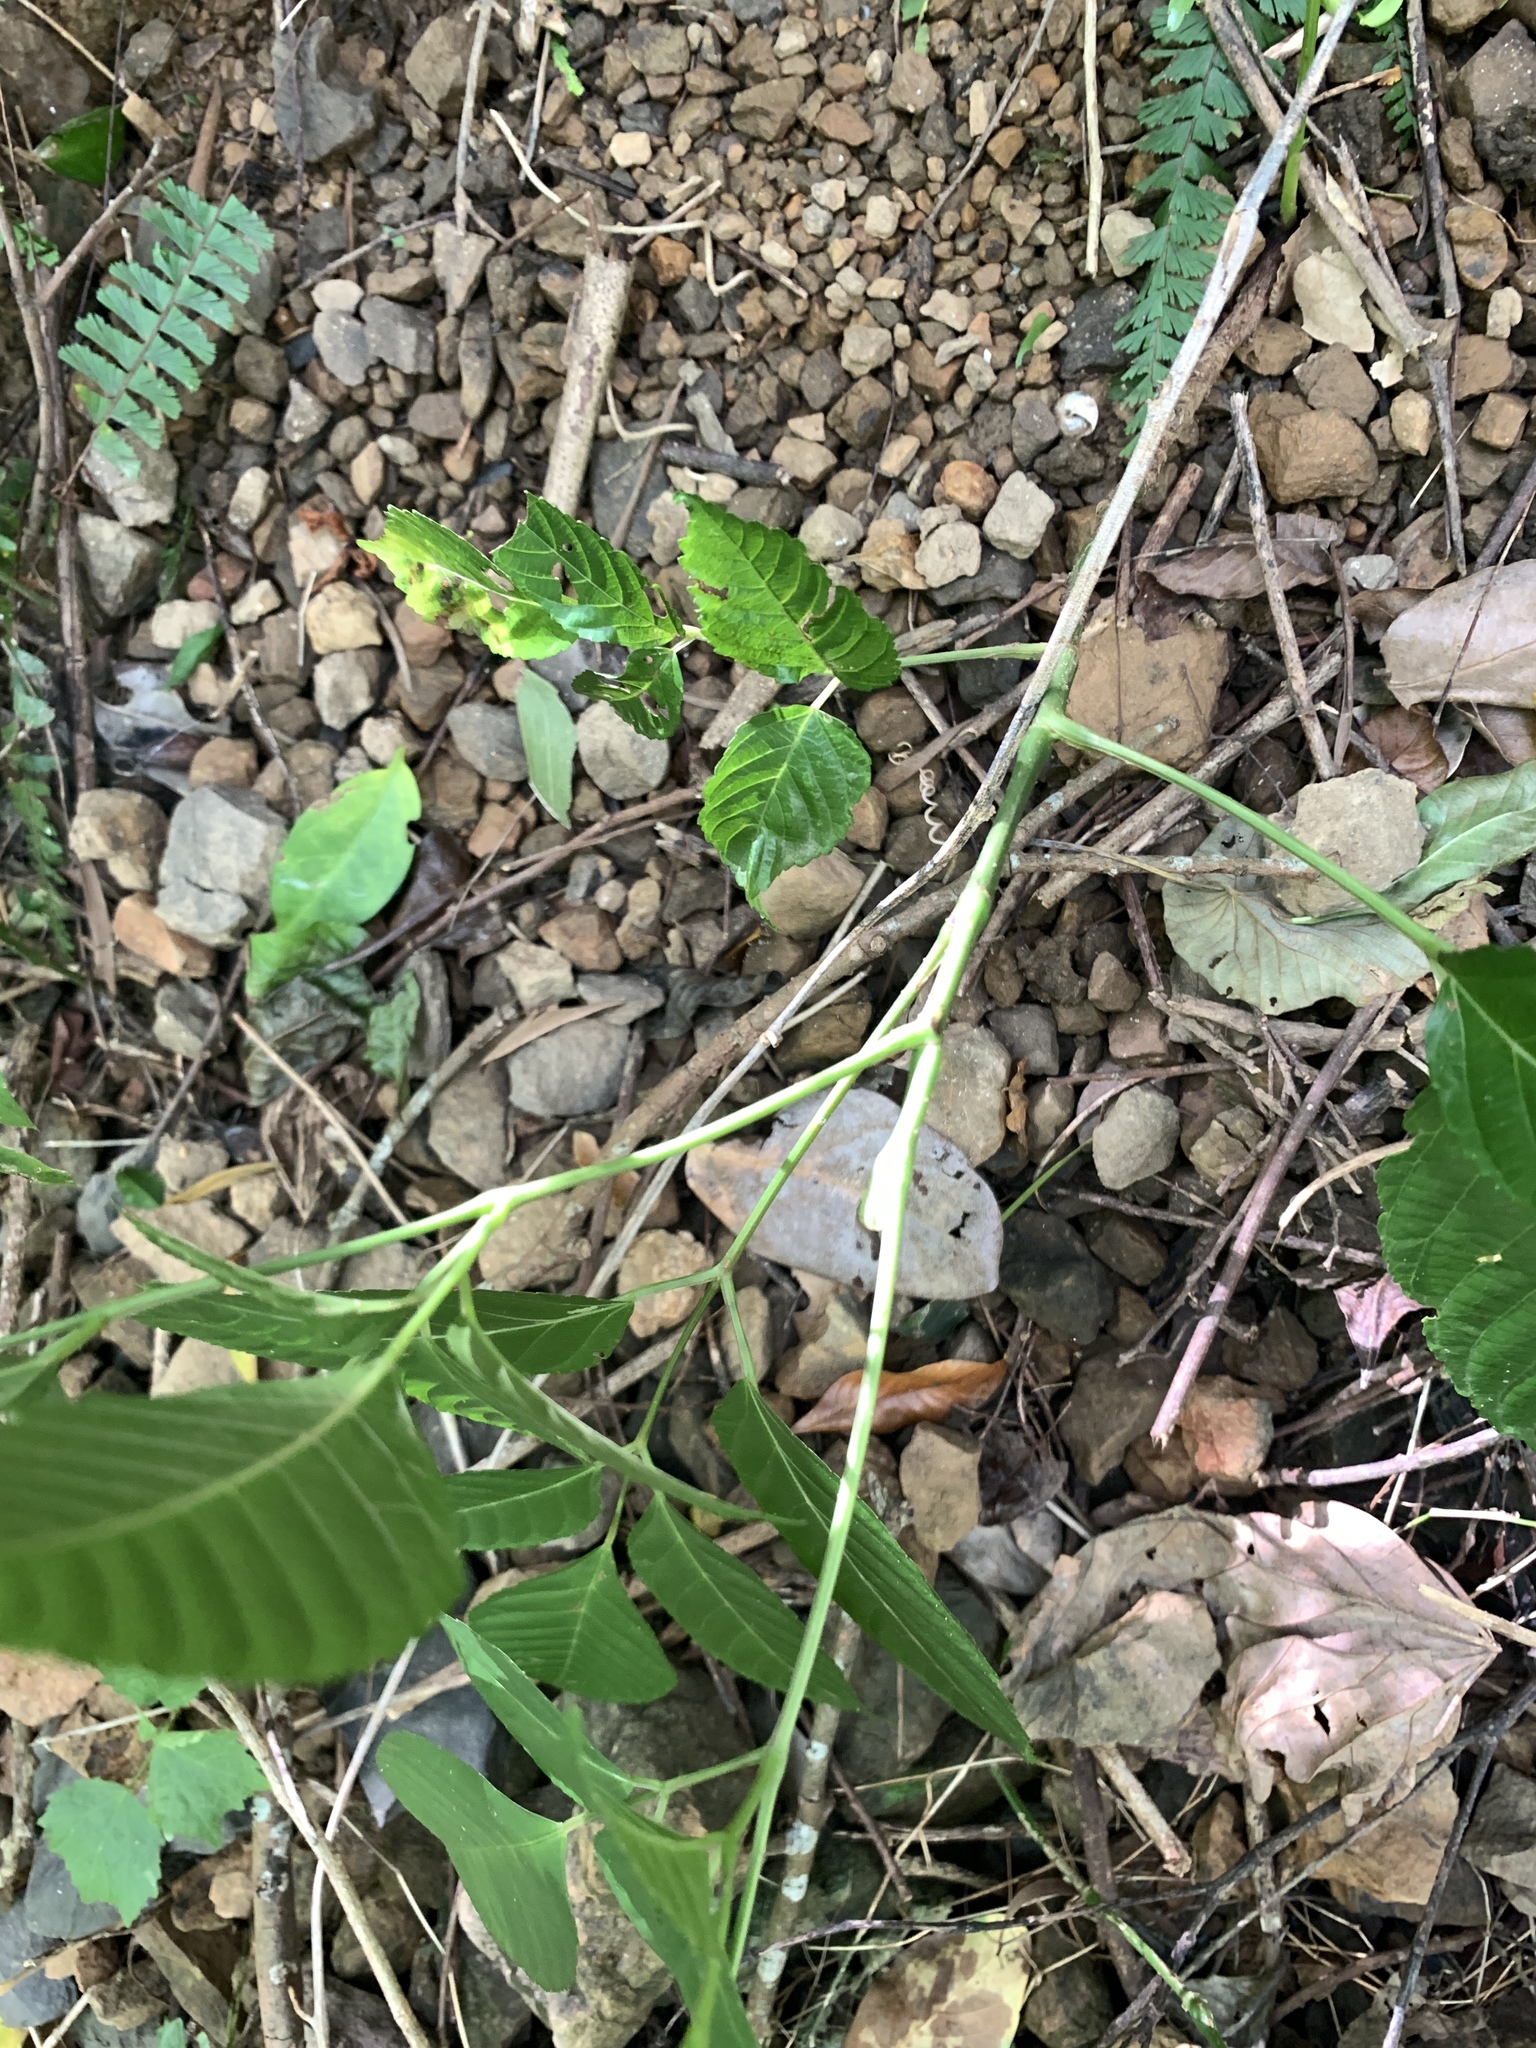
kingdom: Plantae
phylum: Tracheophyta
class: Magnoliopsida
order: Vitales
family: Vitaceae
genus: Leea
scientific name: Leea guineensis
